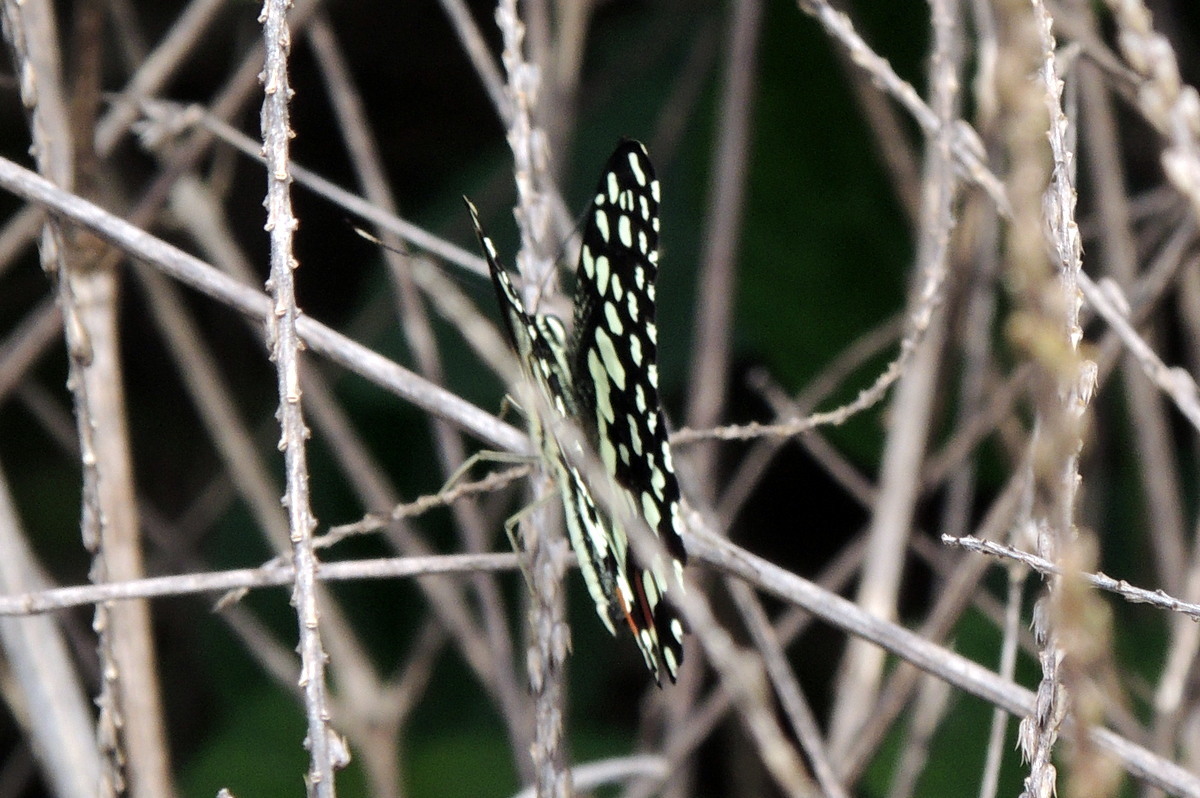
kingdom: Animalia
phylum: Arthropoda
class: Insecta
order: Lepidoptera
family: Papilionidae
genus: Papilio
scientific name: Papilio demoleus
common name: Lime butterfly
